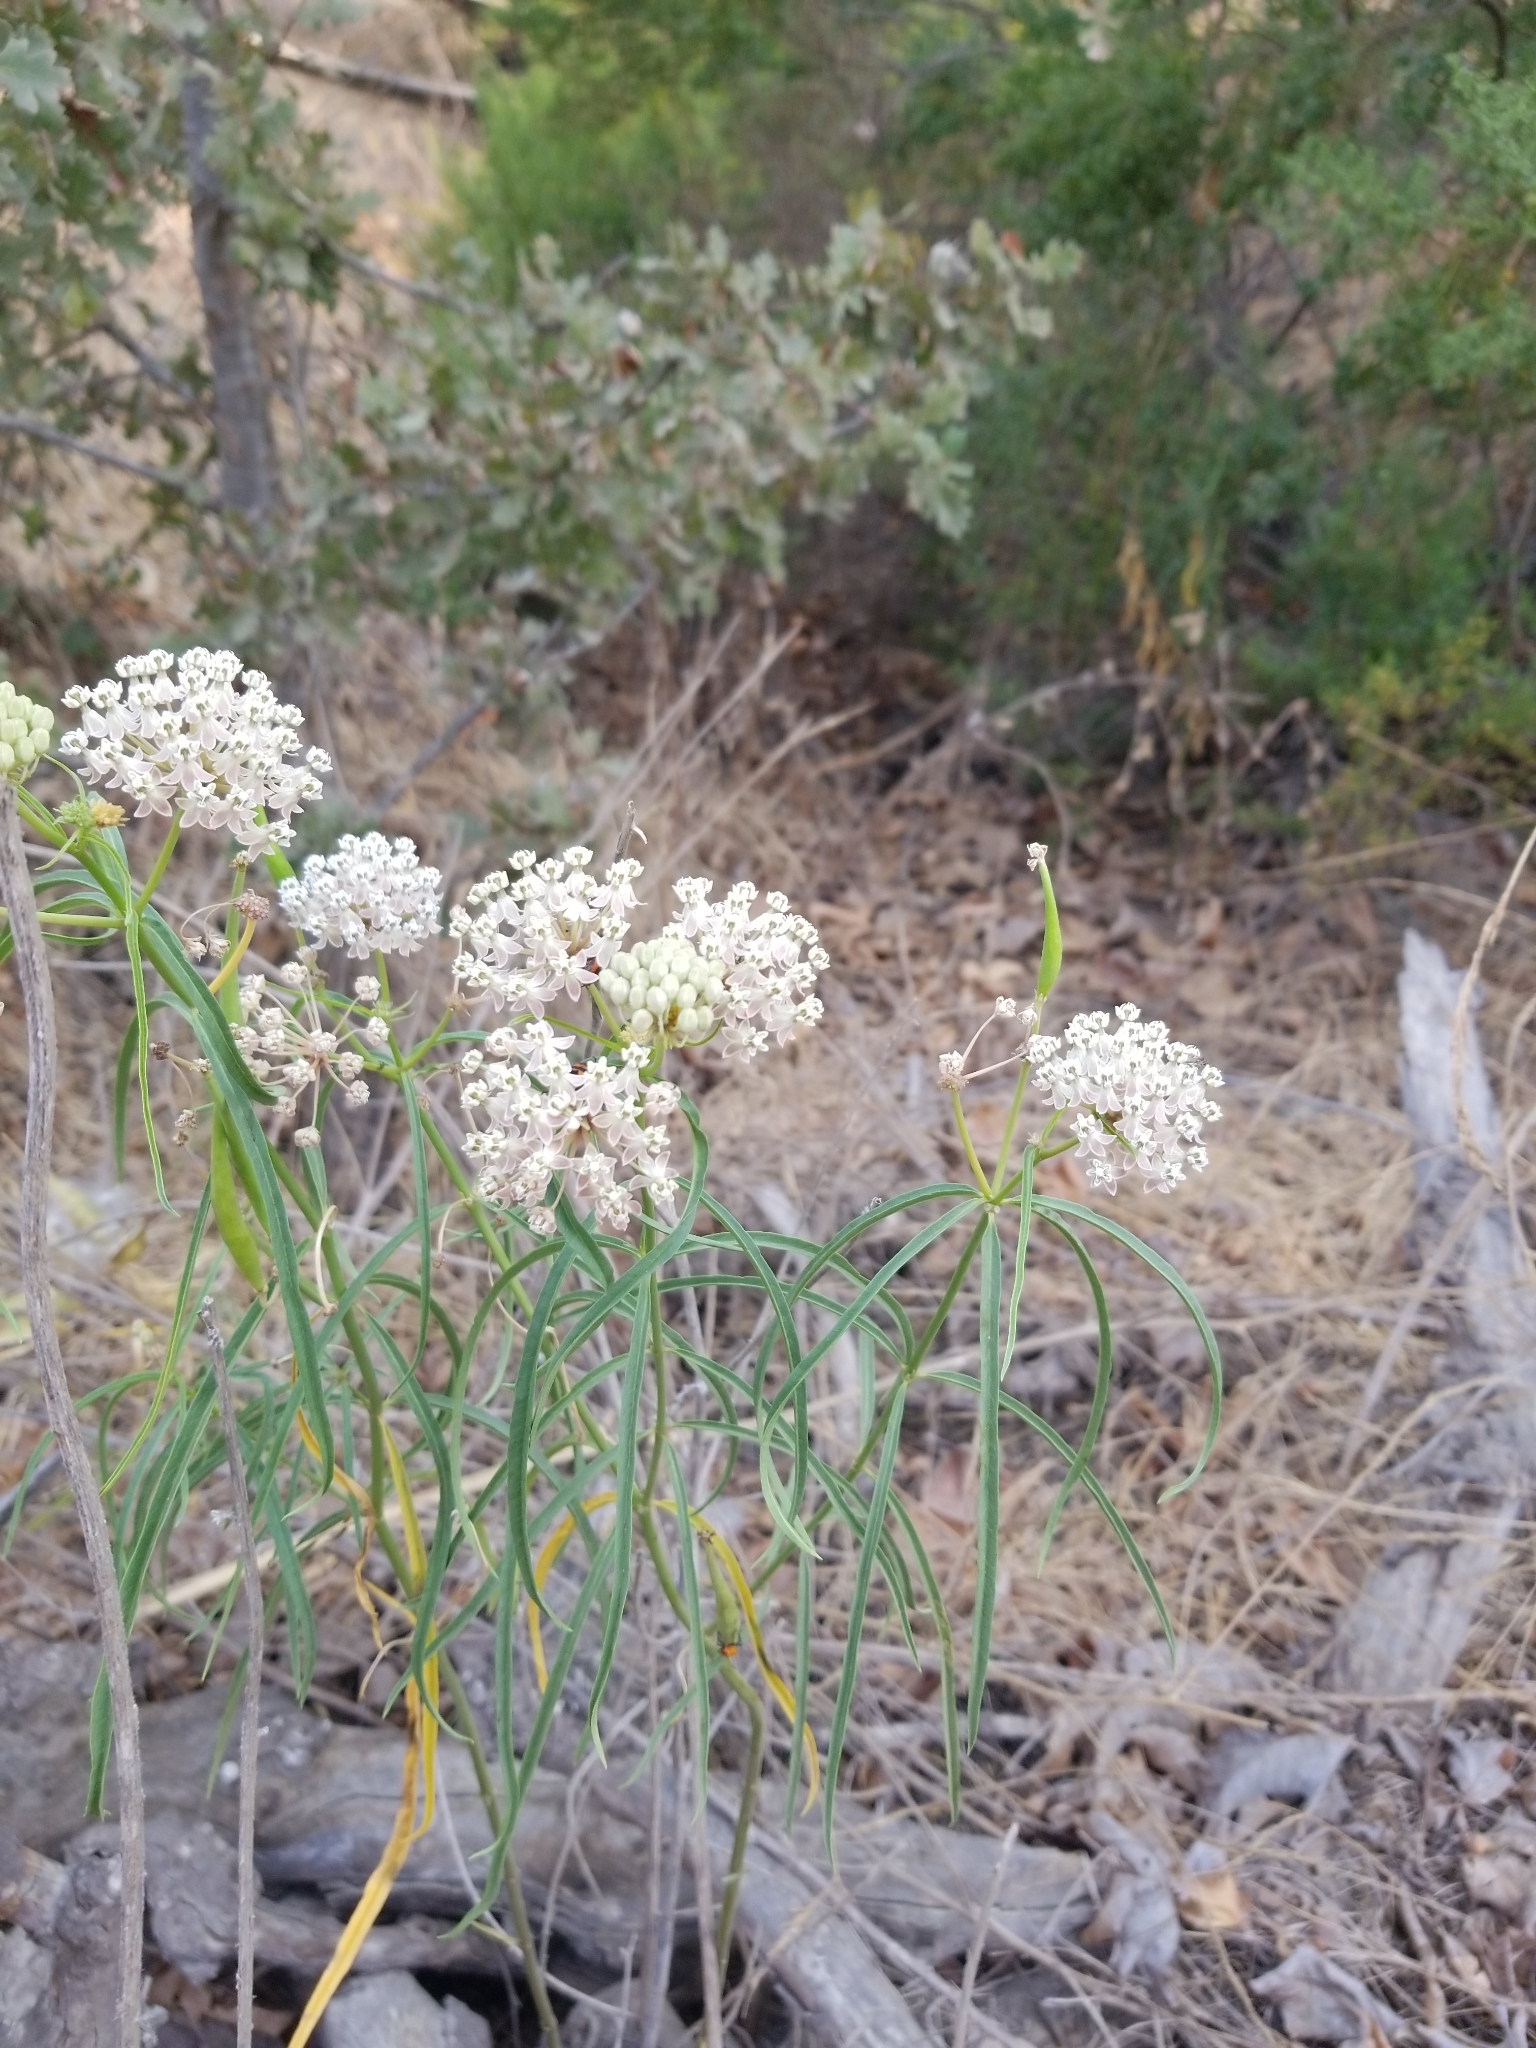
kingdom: Plantae
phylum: Tracheophyta
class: Magnoliopsida
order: Gentianales
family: Apocynaceae
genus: Asclepias
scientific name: Asclepias fascicularis
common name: Mexican milkweed
